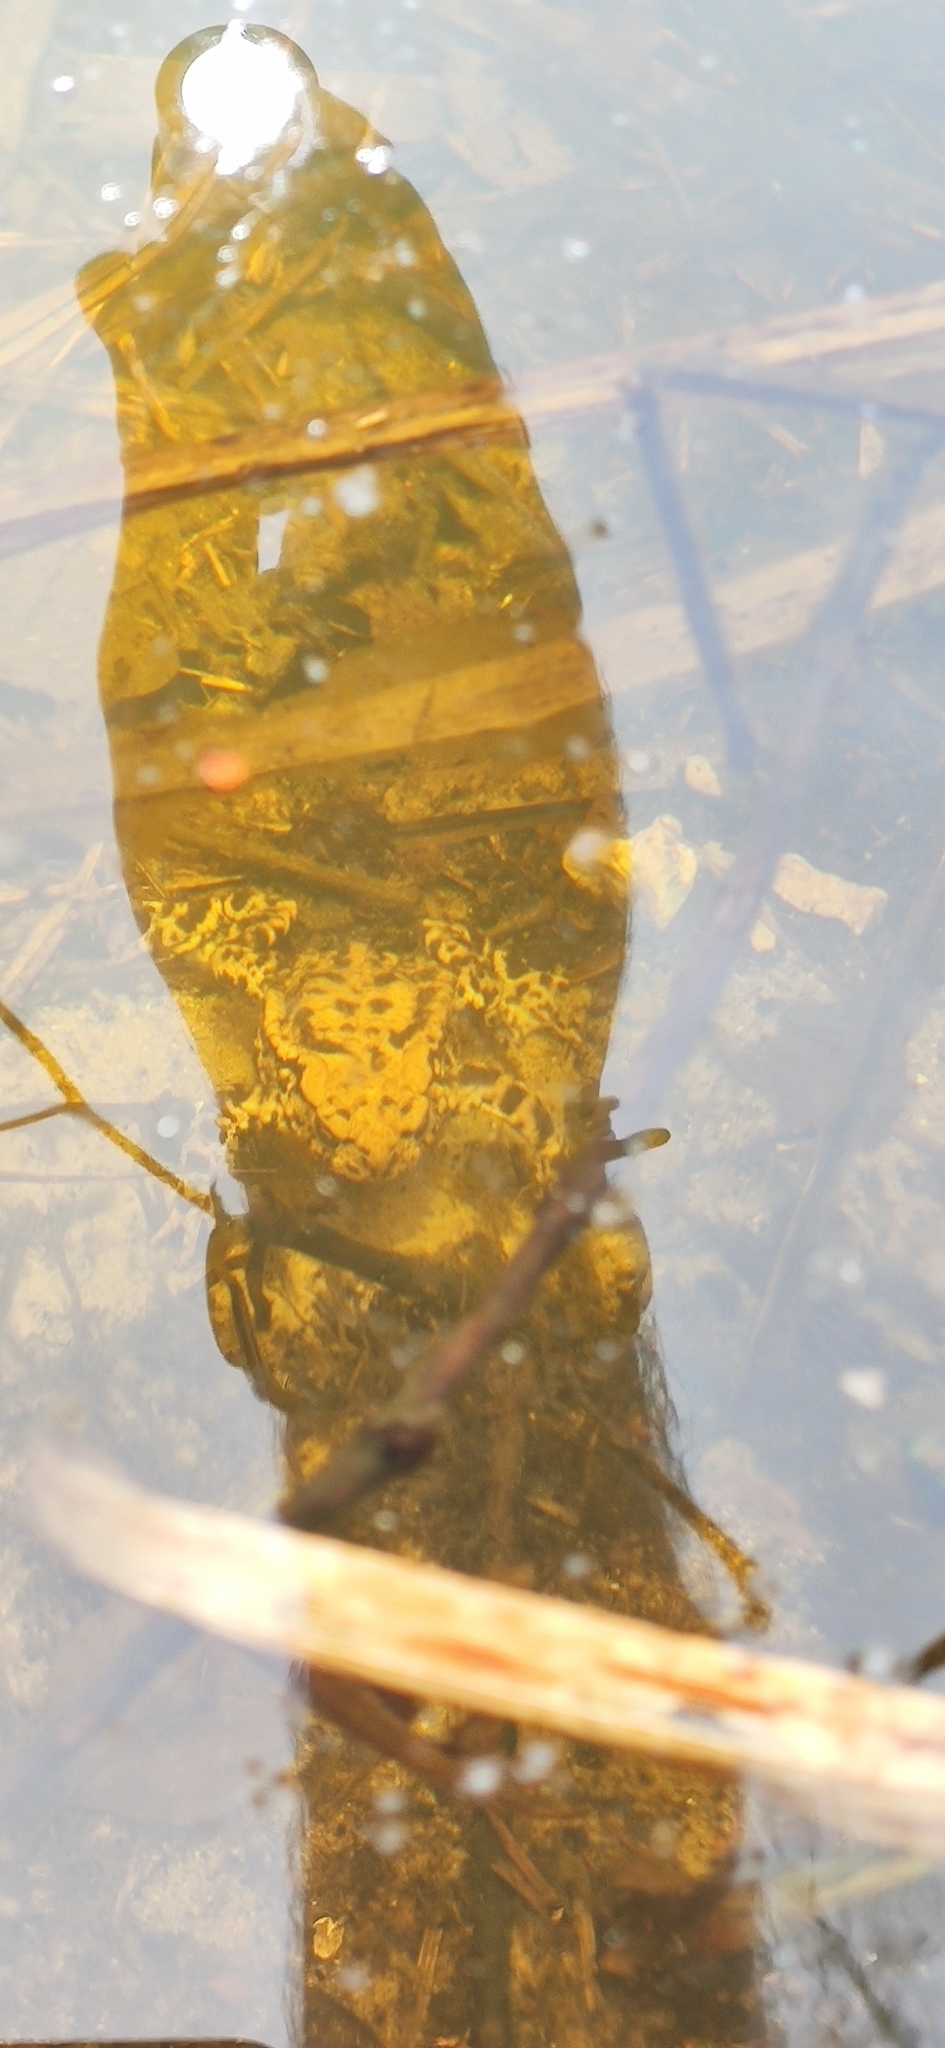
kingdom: Animalia
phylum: Chordata
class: Amphibia
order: Anura
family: Bufonidae
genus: Bufo
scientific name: Bufo bufo
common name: Common toad
